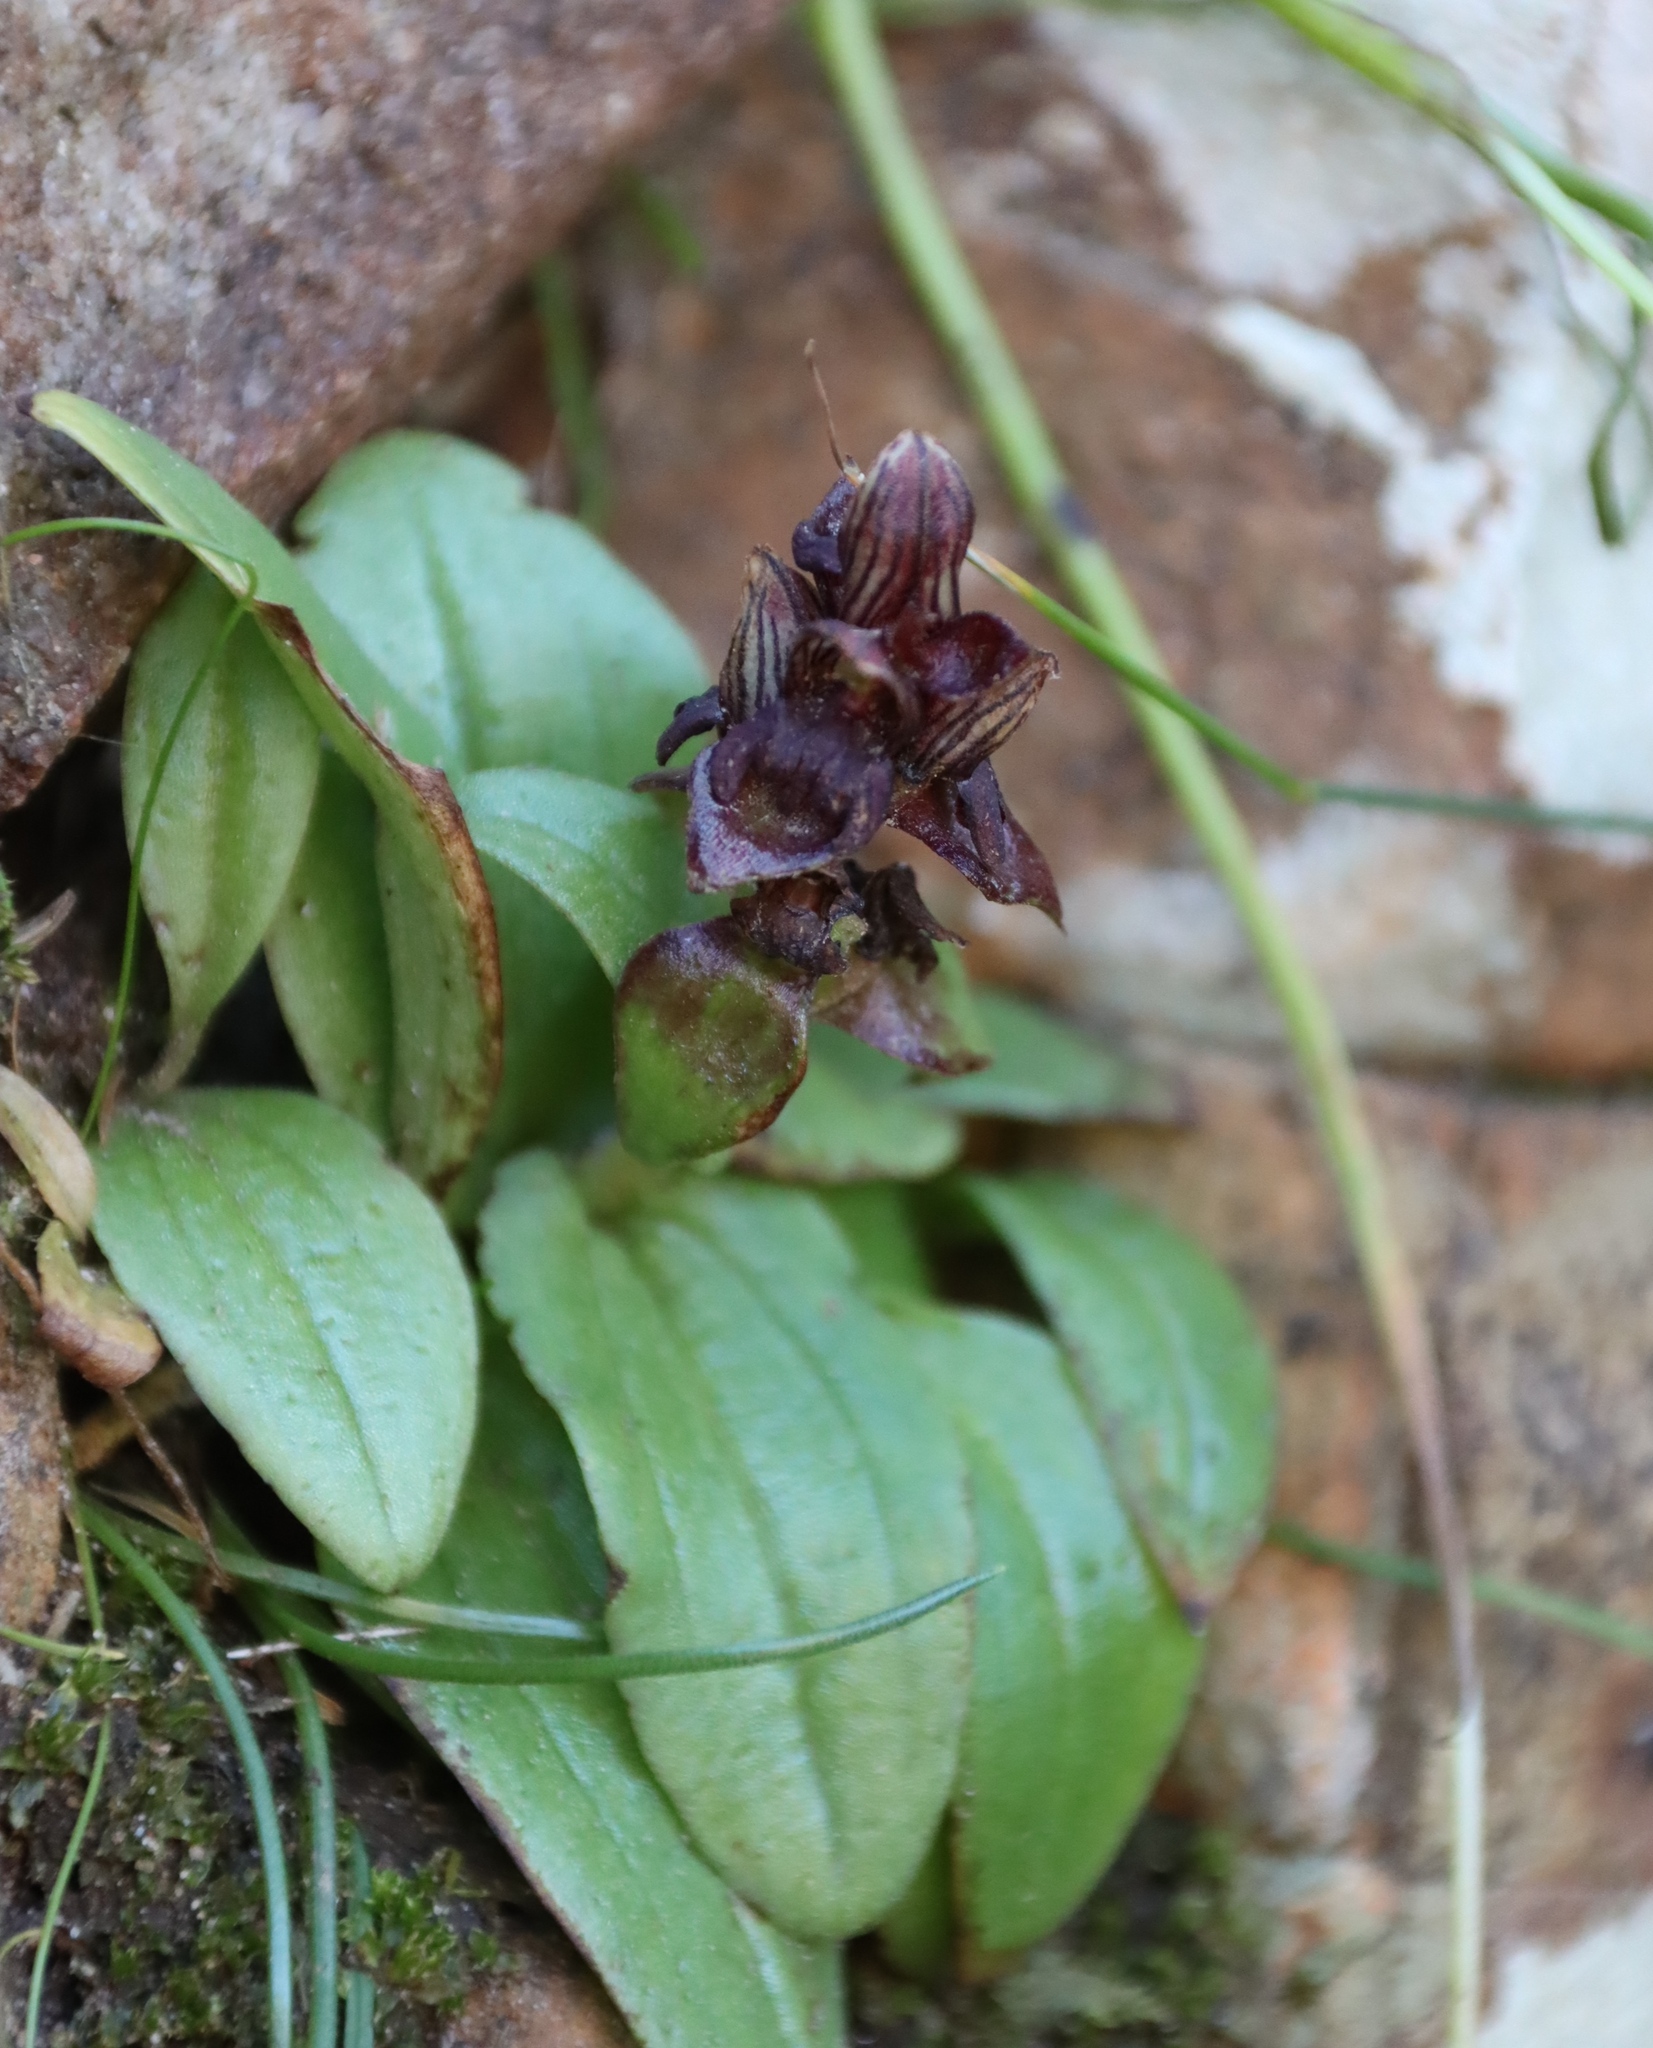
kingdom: Plantae
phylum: Tracheophyta
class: Liliopsida
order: Asparagales
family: Orchidaceae
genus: Satyrium
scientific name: Satyrium bracteatum
